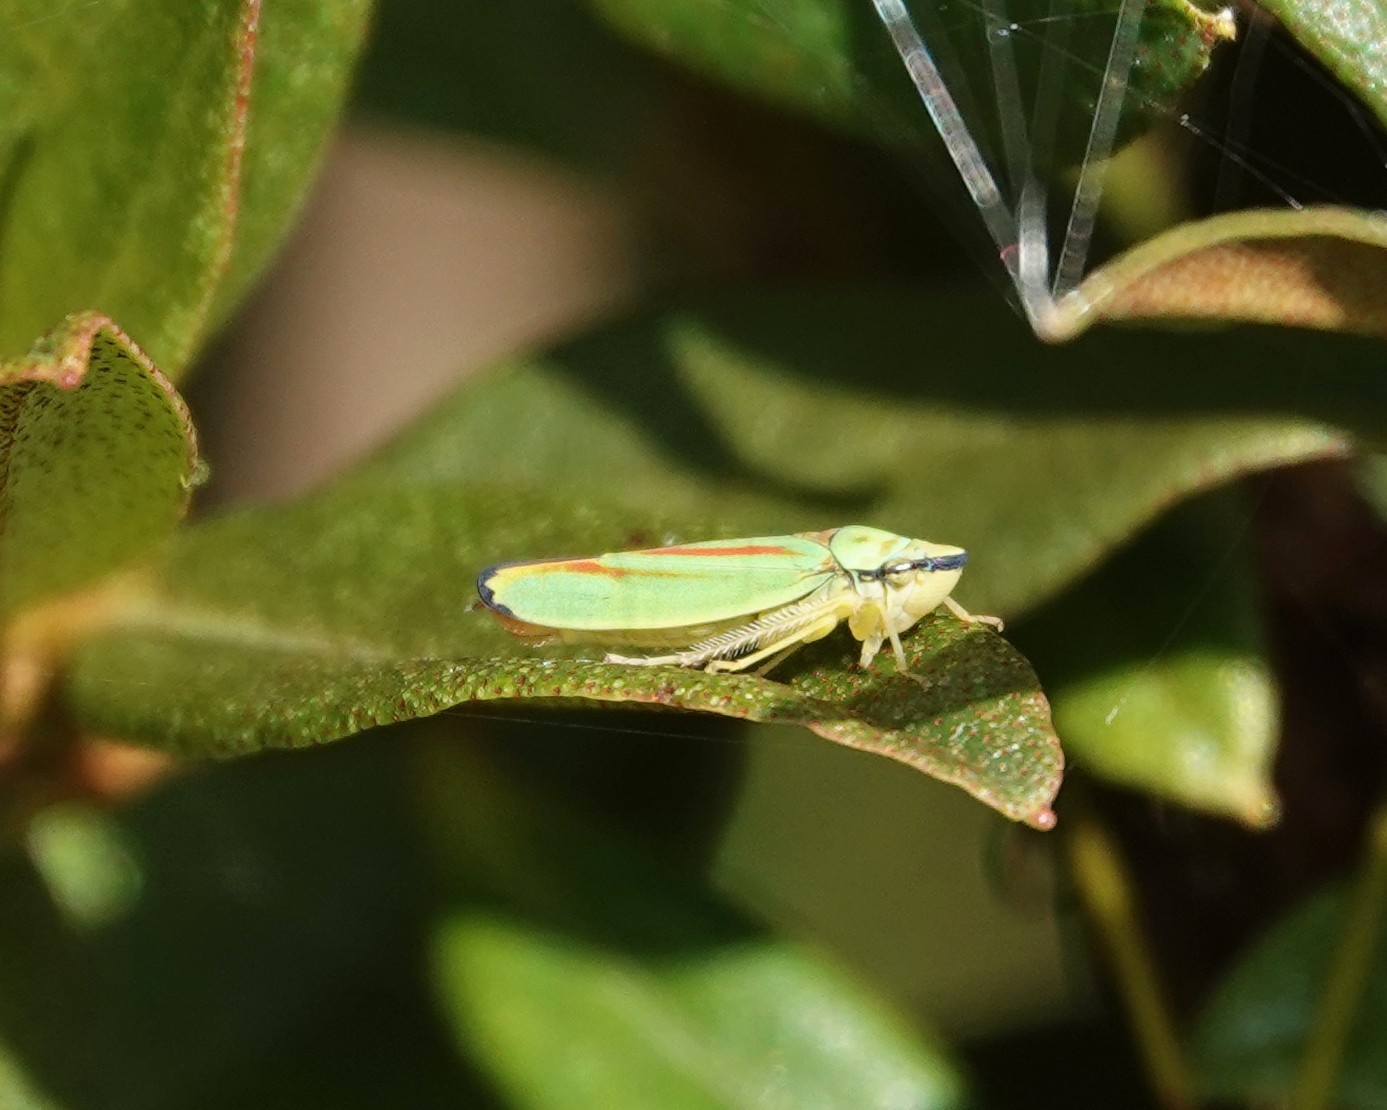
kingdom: Animalia
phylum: Arthropoda
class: Insecta
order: Hemiptera
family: Cicadellidae
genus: Graphocephala
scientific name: Graphocephala fennahi
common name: Rhododendron leafhopper
